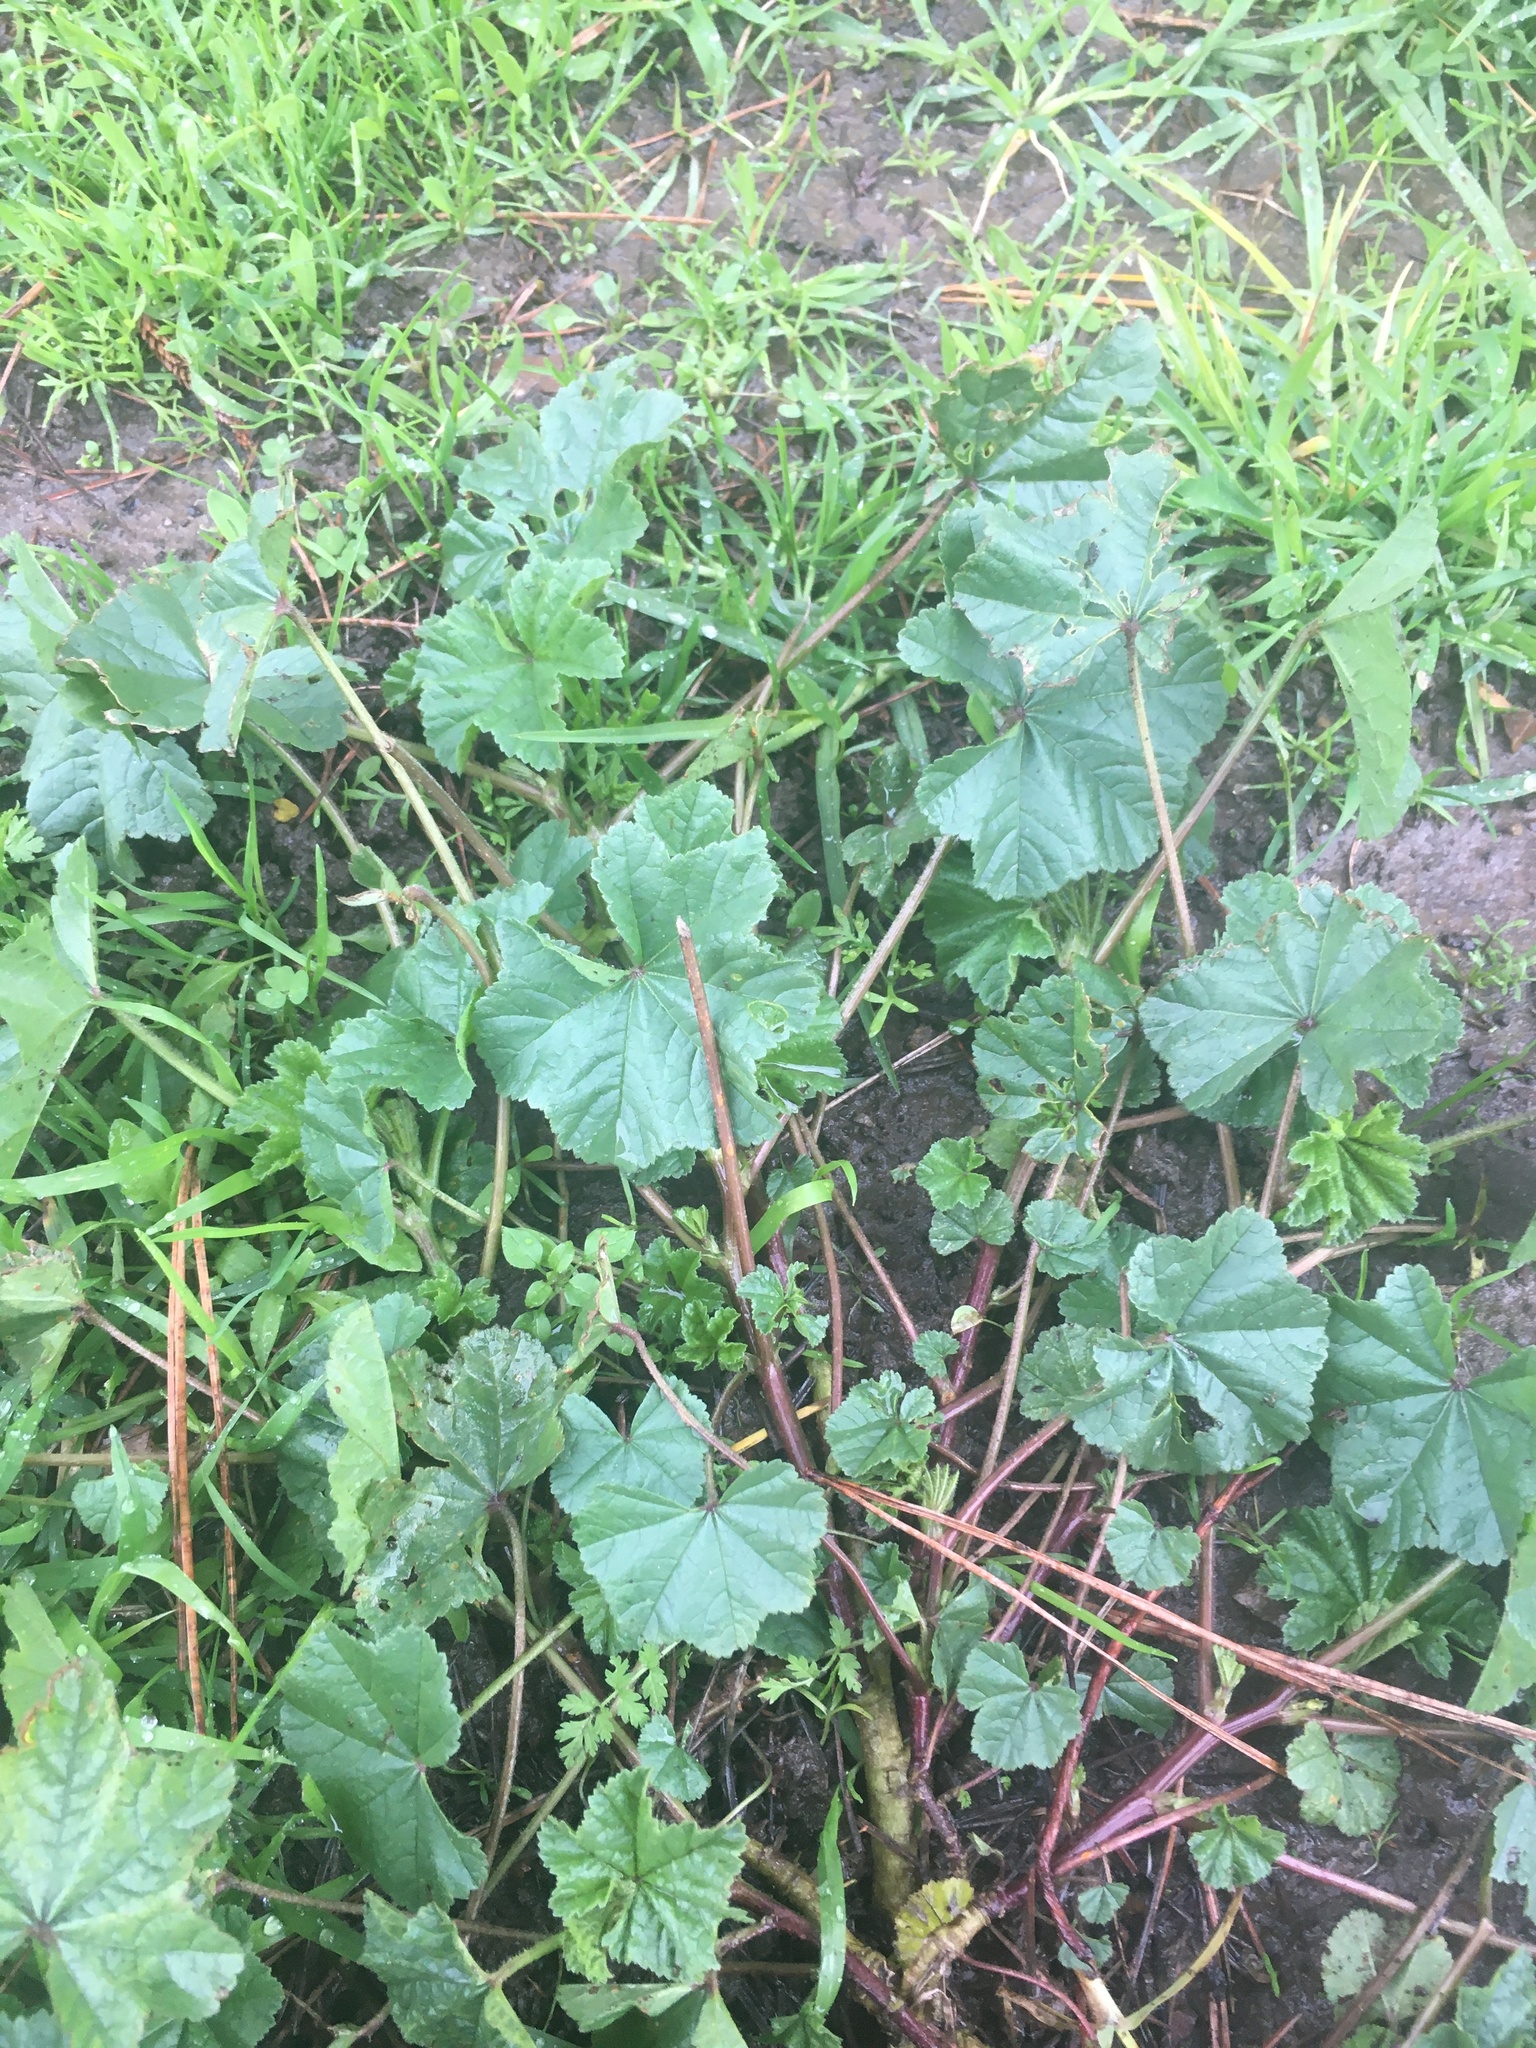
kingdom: Plantae
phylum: Tracheophyta
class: Magnoliopsida
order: Malvales
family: Malvaceae
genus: Malva
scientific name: Malva
